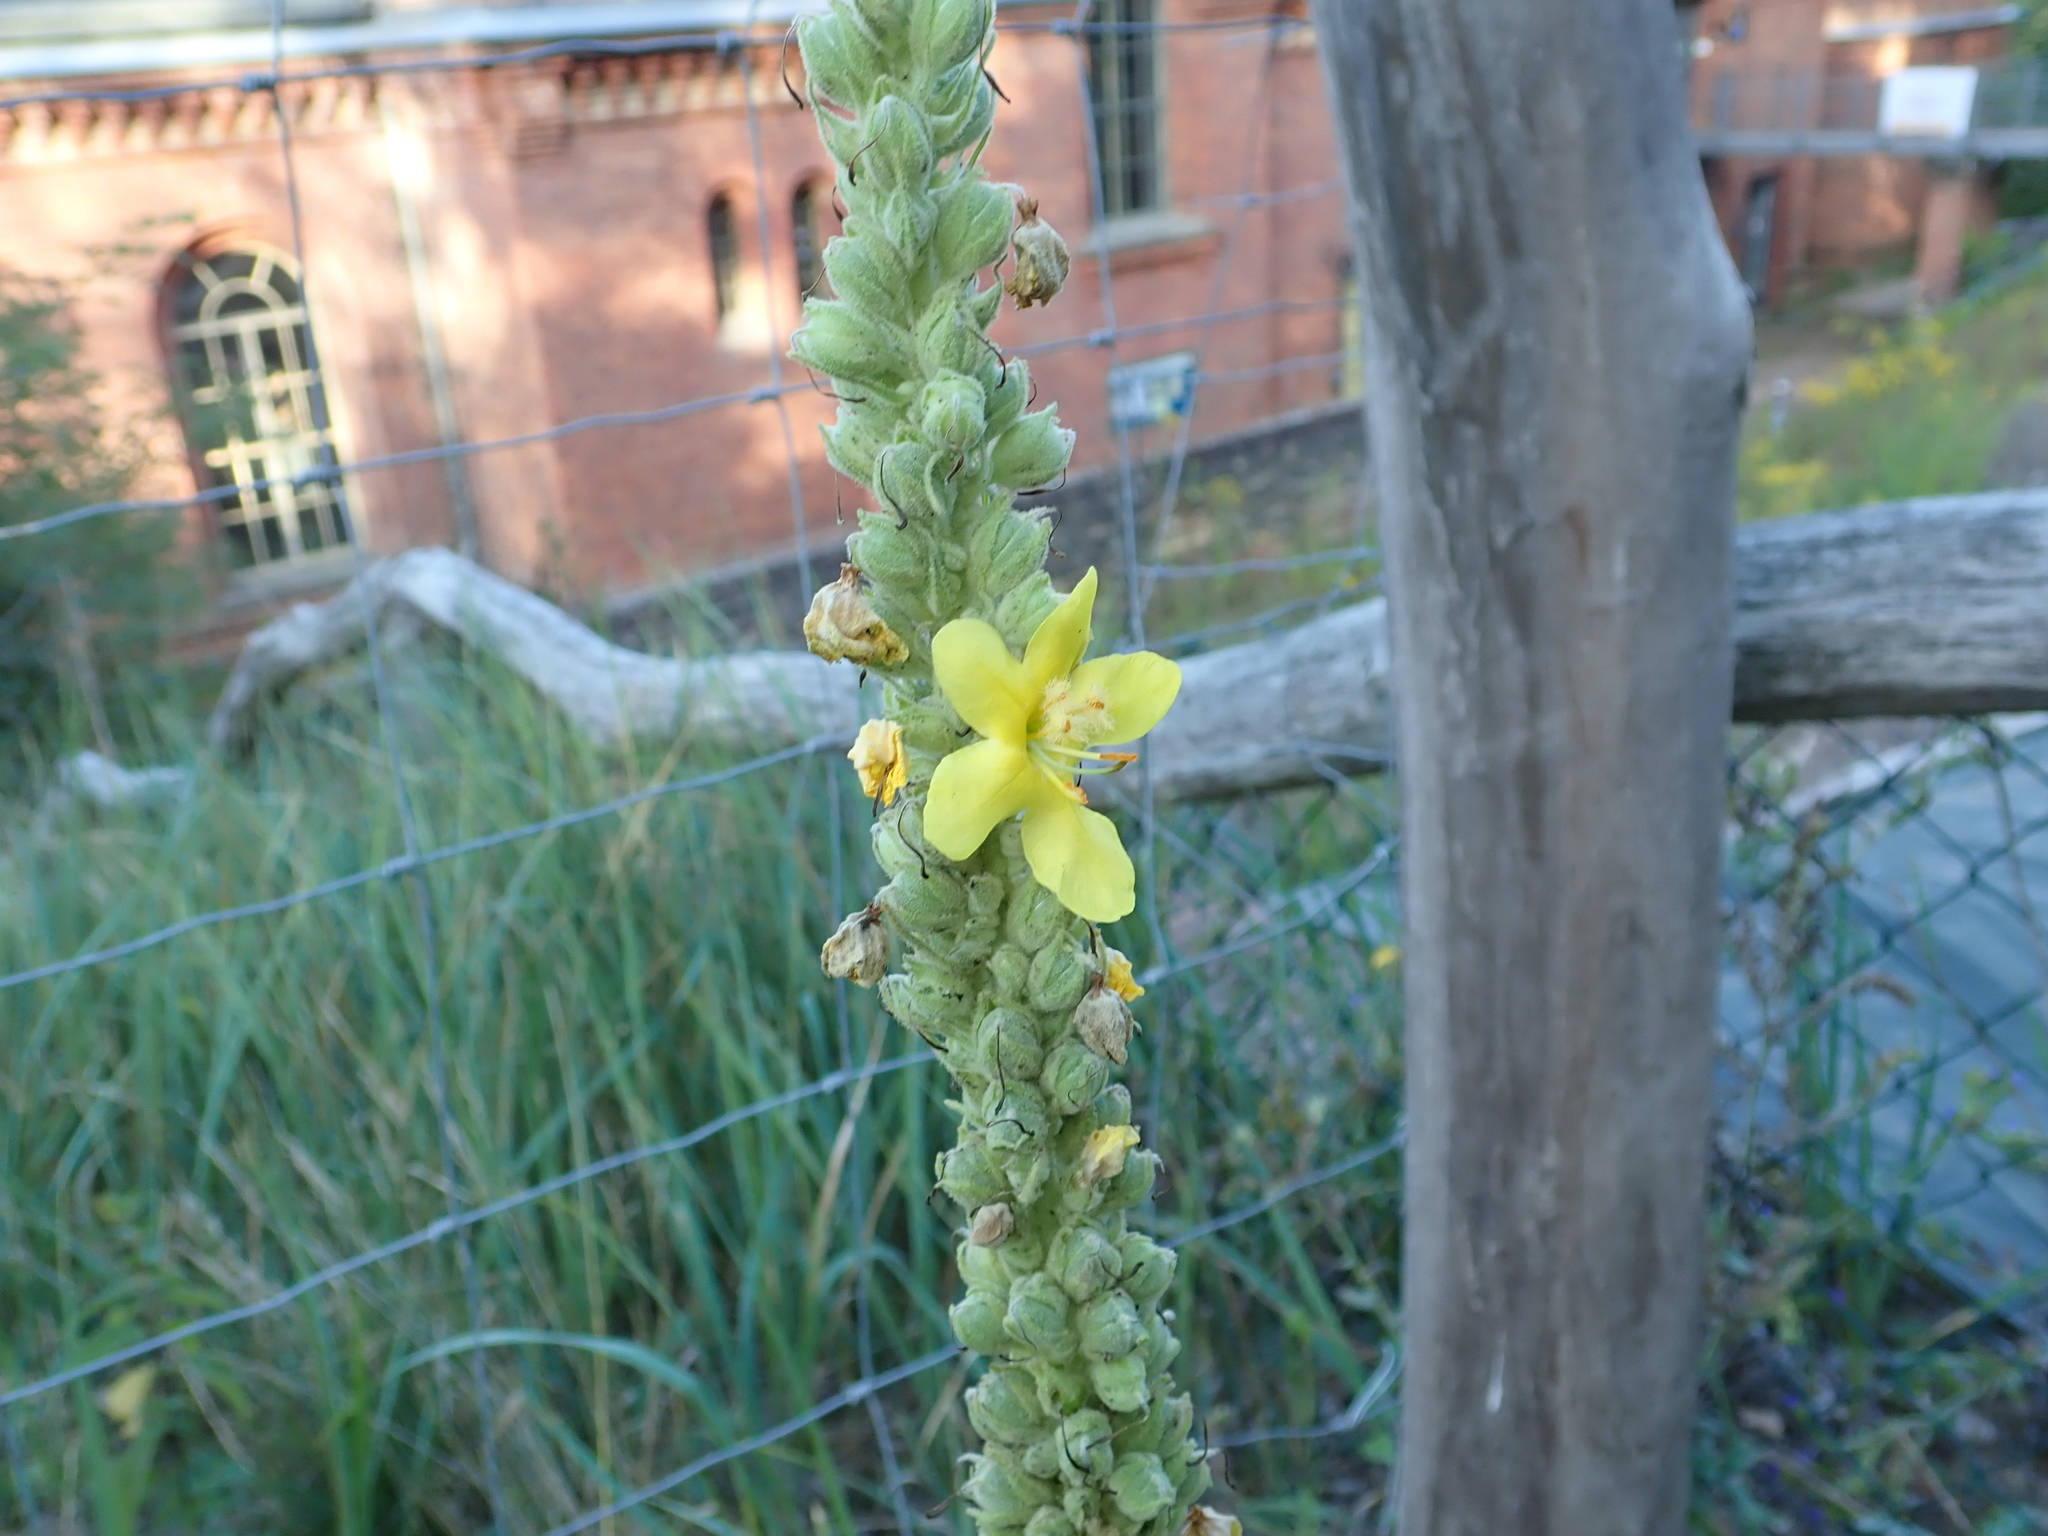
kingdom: Plantae
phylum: Tracheophyta
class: Magnoliopsida
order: Lamiales
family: Scrophulariaceae
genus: Verbascum
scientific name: Verbascum thapsus
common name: Common mullein
